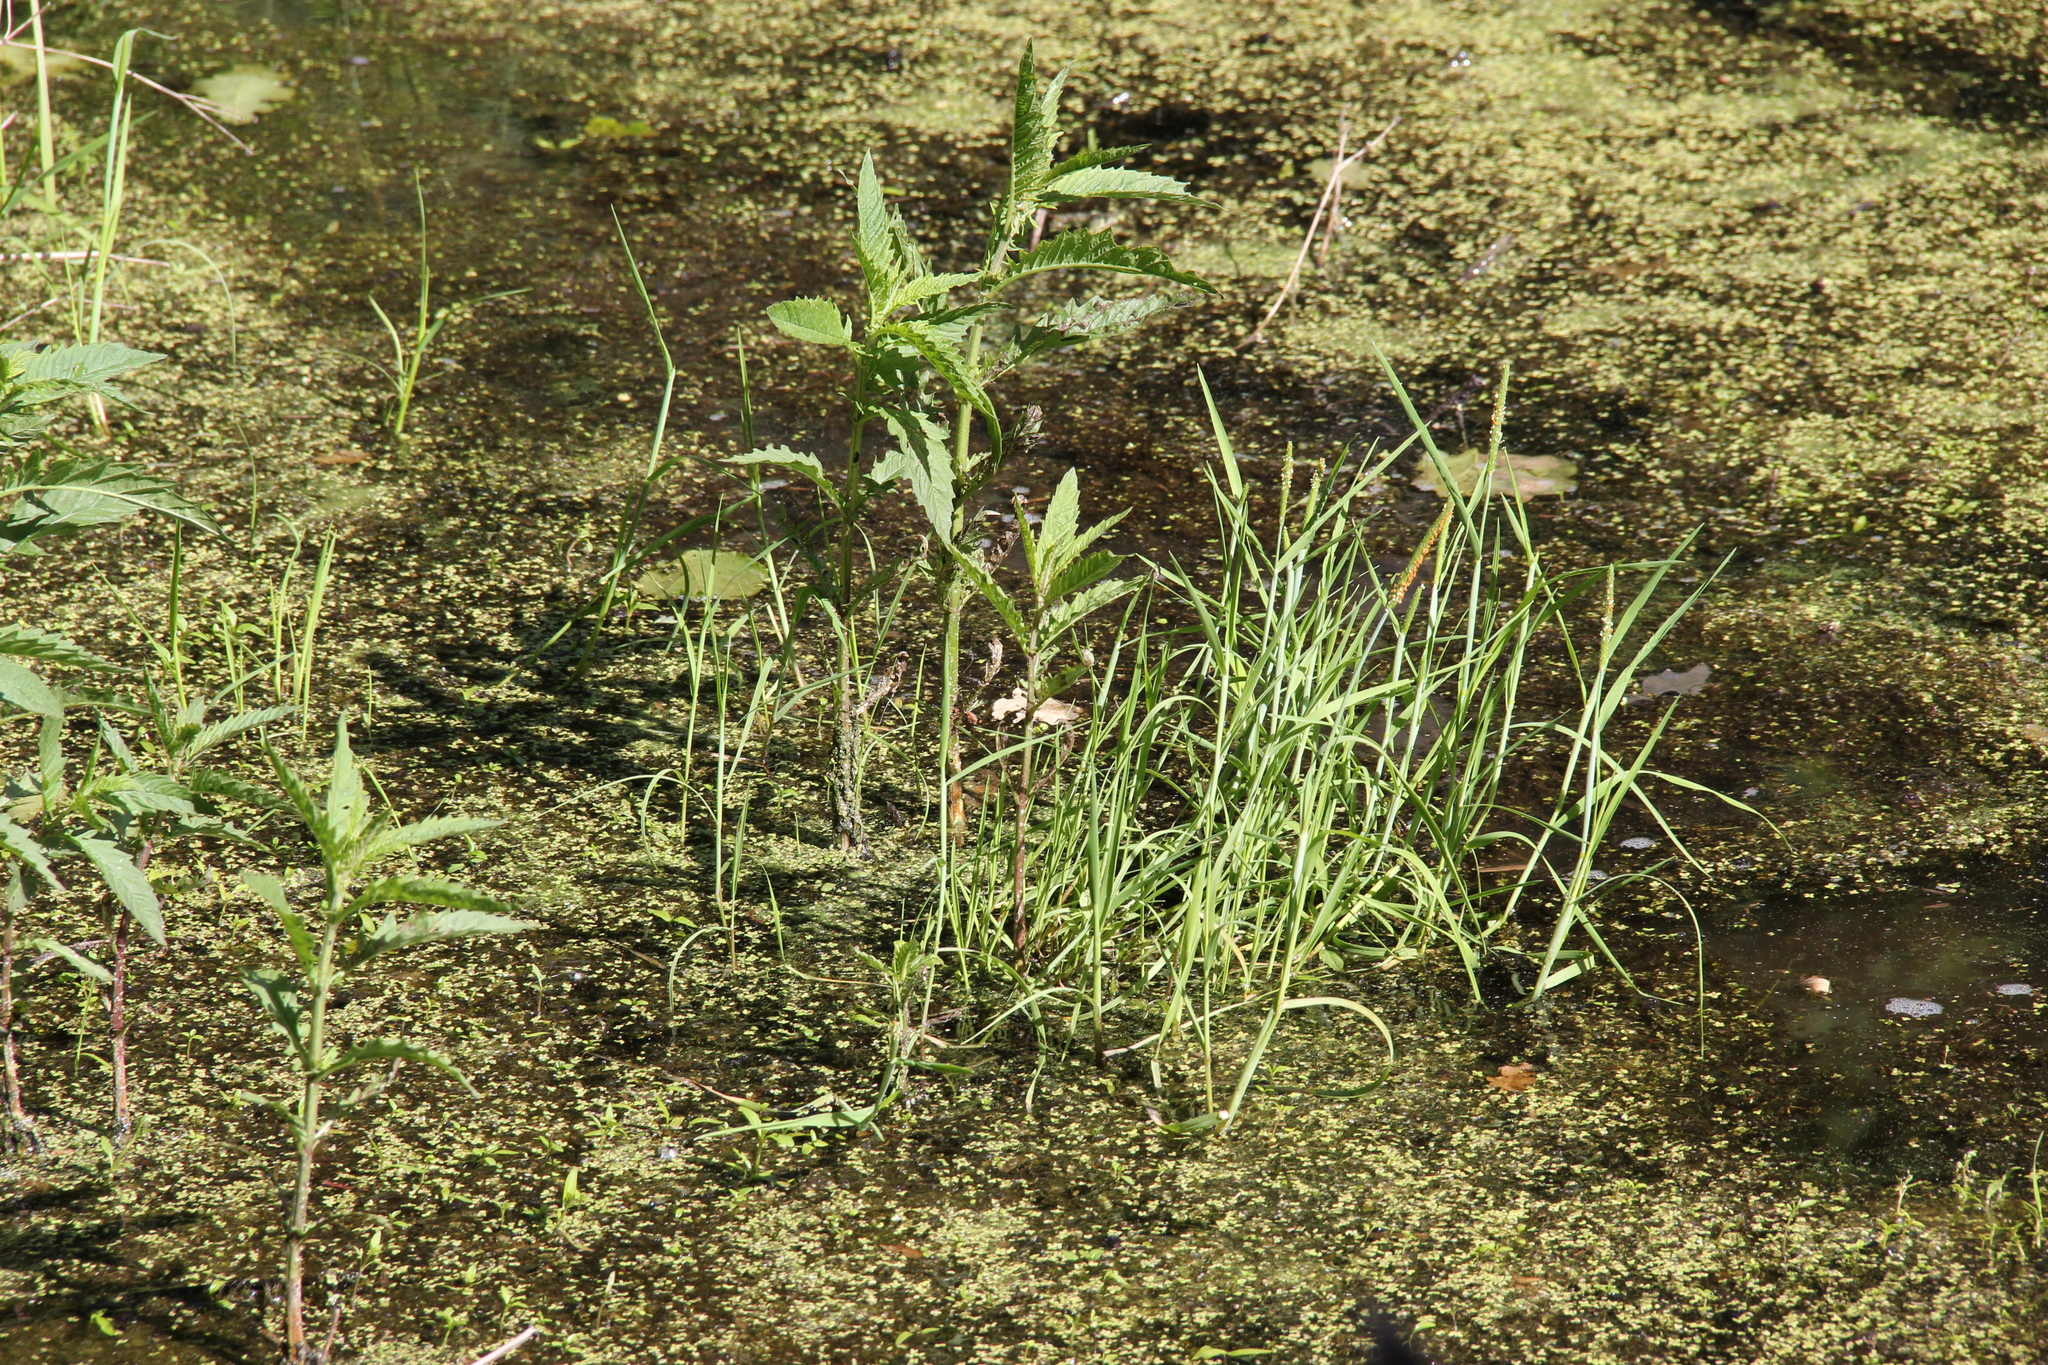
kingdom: Plantae
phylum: Tracheophyta
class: Magnoliopsida
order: Lamiales
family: Lamiaceae
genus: Lycopus
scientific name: Lycopus europaeus
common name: European bugleweed
